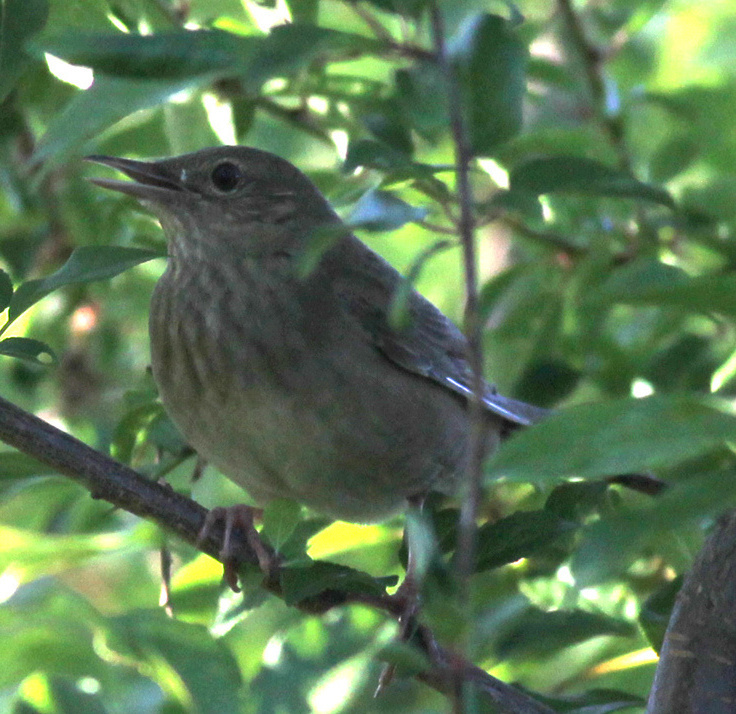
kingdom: Animalia
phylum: Chordata
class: Aves
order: Passeriformes
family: Locustellidae
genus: Locustella
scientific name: Locustella fluviatilis
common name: River warbler
